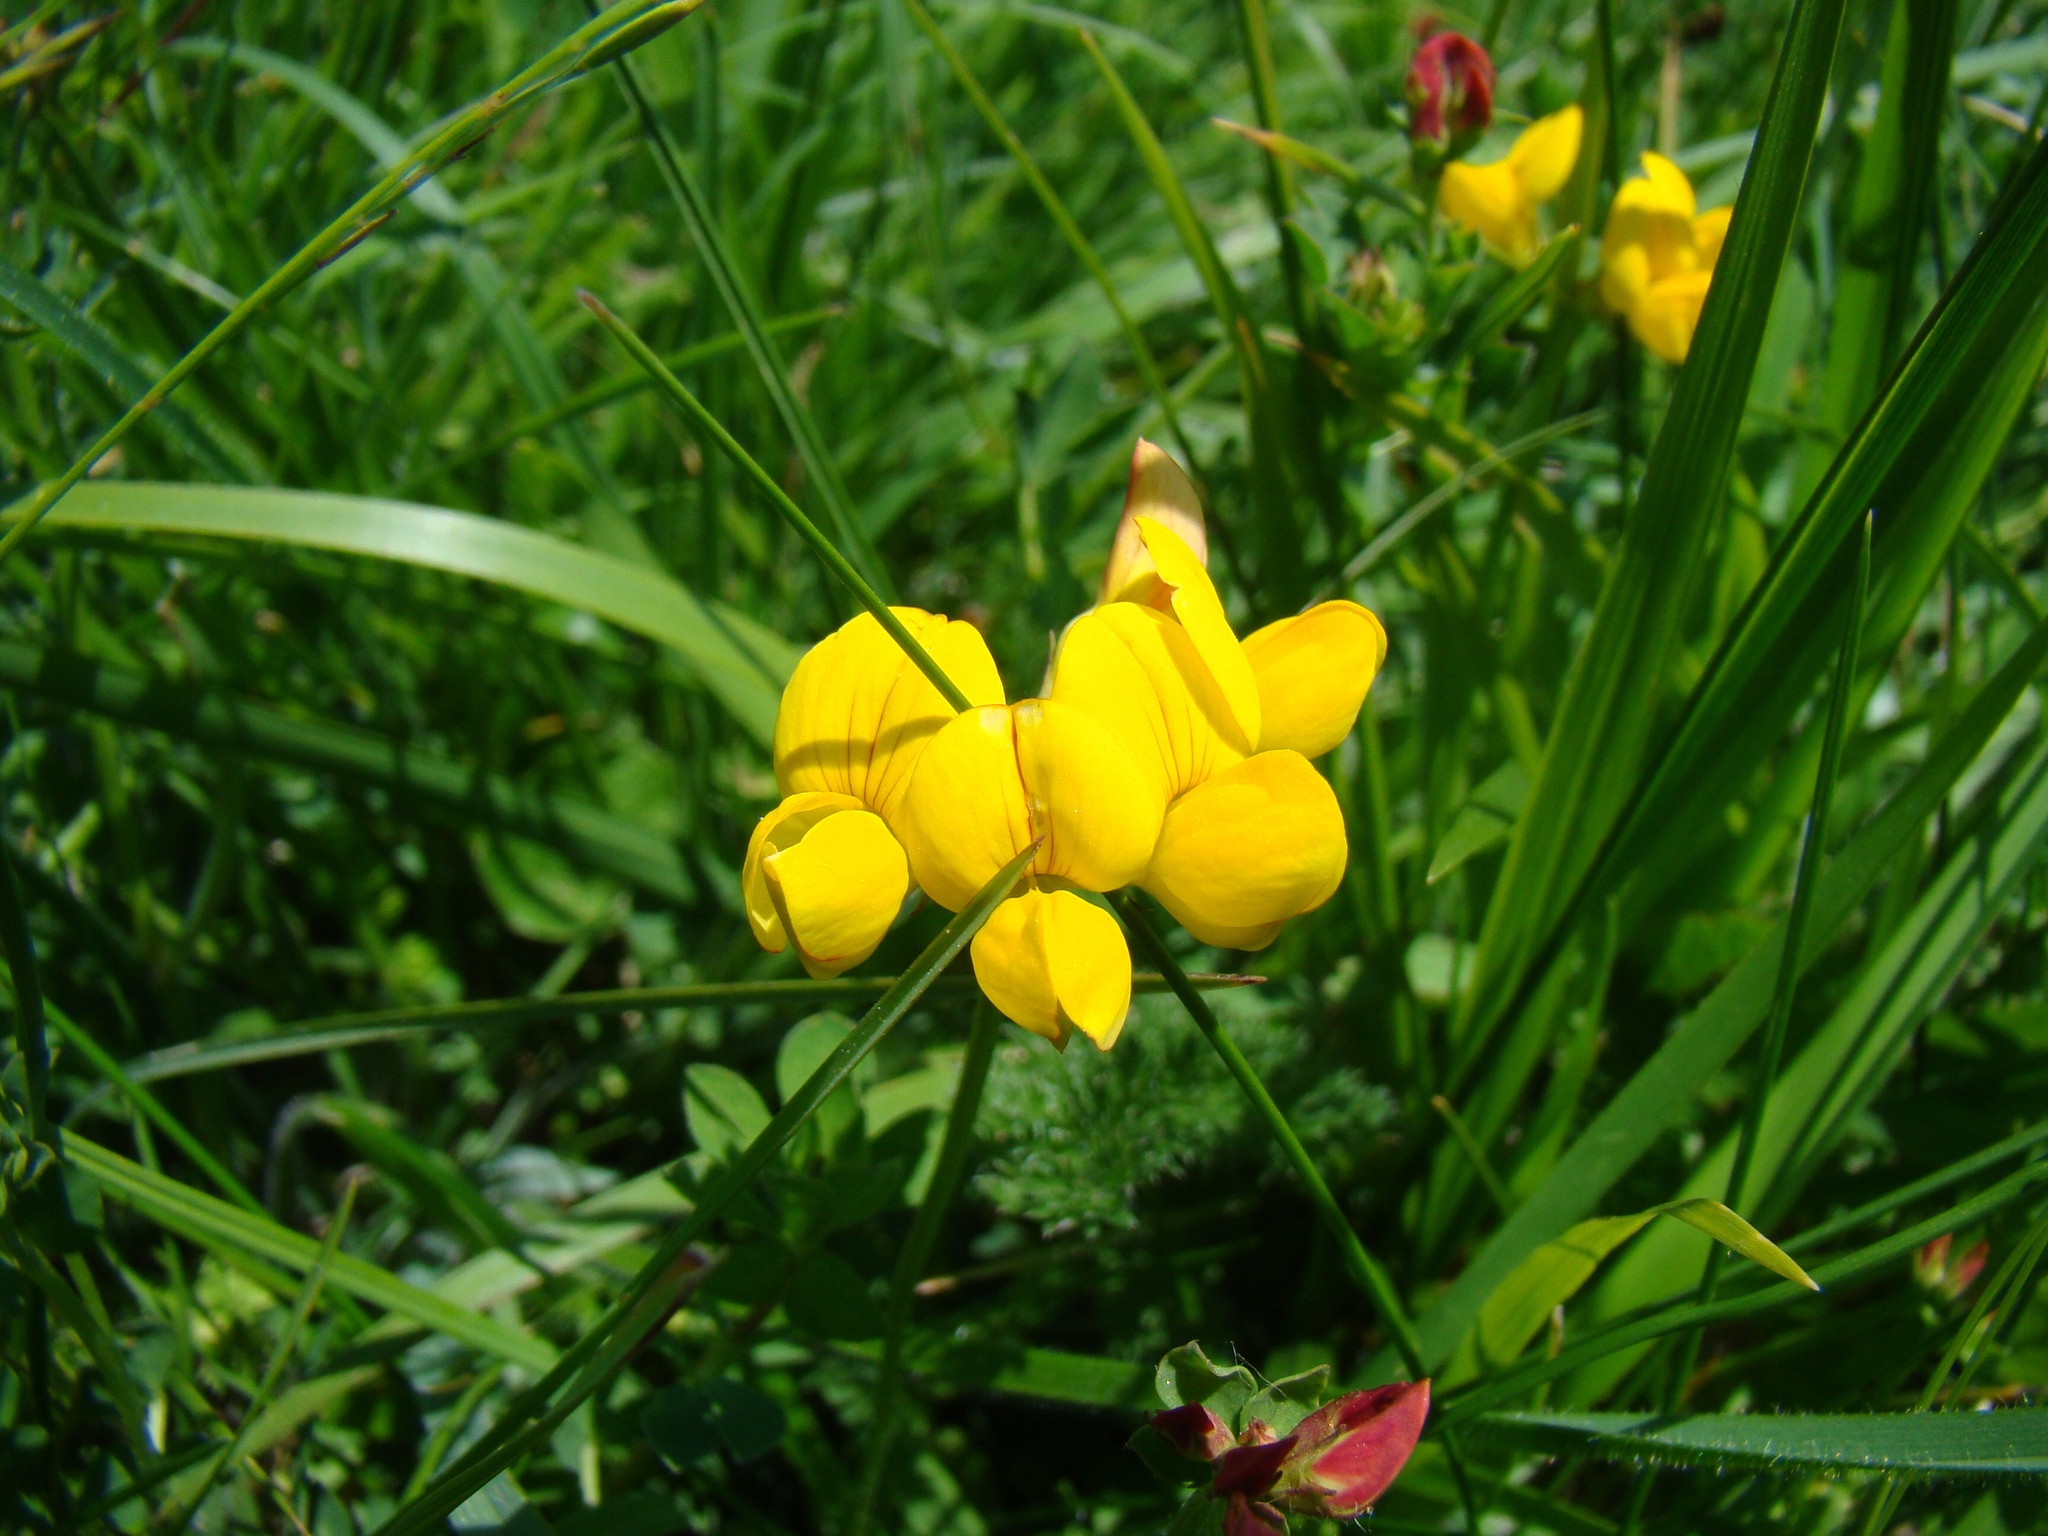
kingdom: Plantae
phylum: Tracheophyta
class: Magnoliopsida
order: Fabales
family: Fabaceae
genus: Lotus
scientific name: Lotus corniculatus
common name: Common bird's-foot-trefoil
